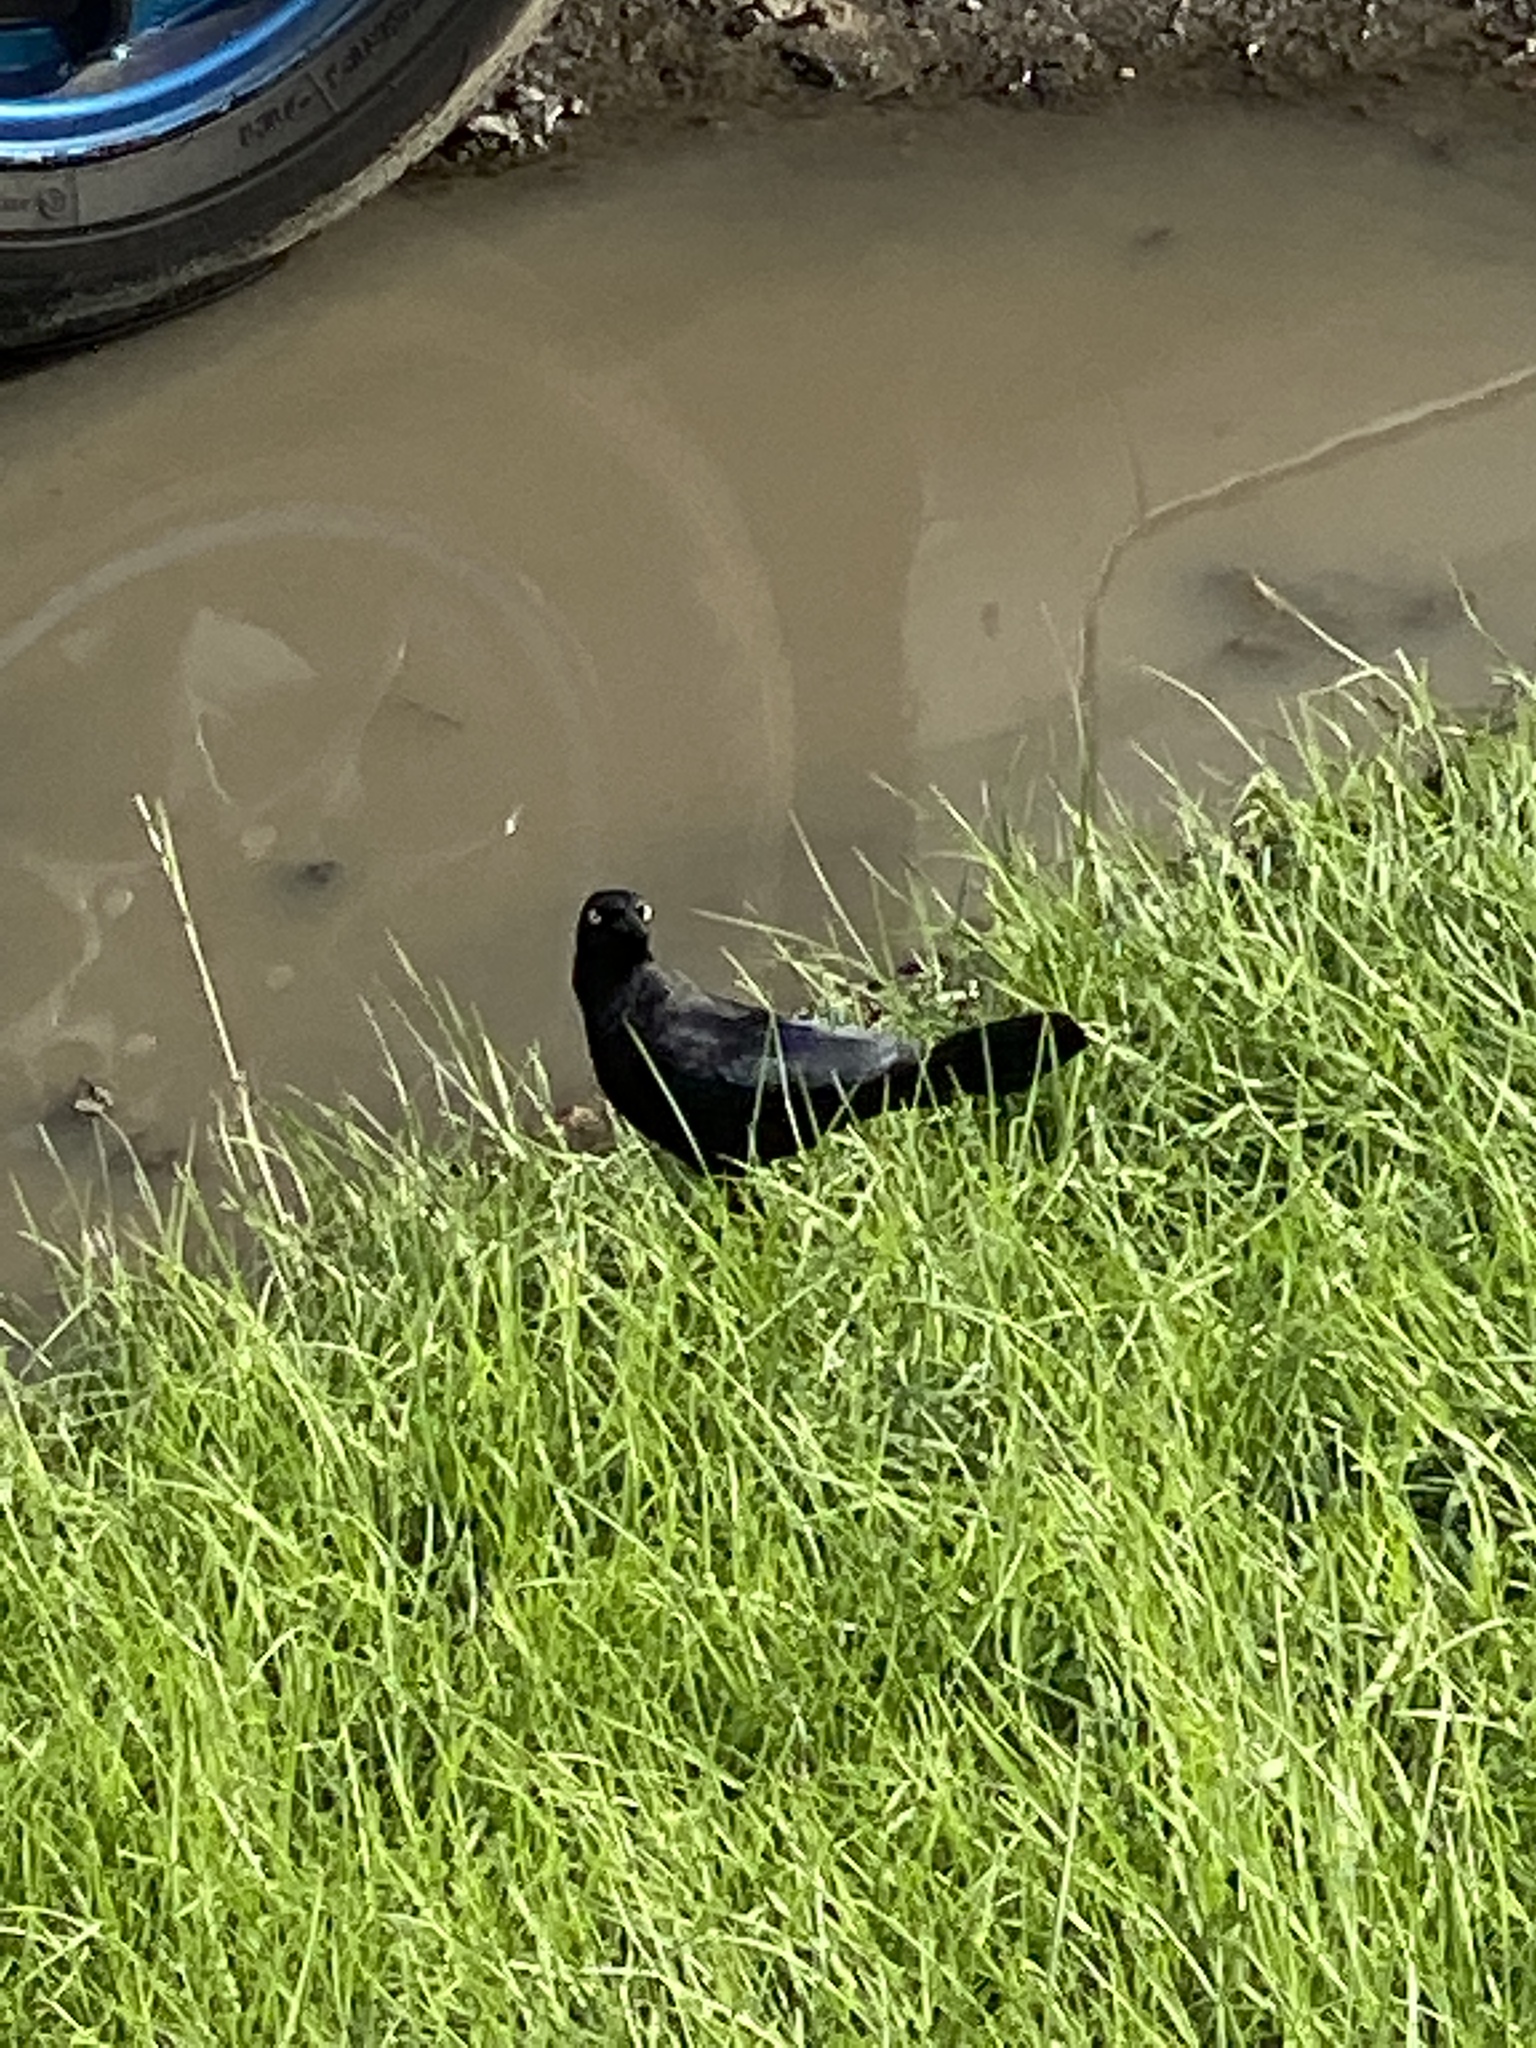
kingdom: Animalia
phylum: Chordata
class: Aves
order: Passeriformes
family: Icteridae
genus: Quiscalus
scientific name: Quiscalus lugubris
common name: Carib grackle
